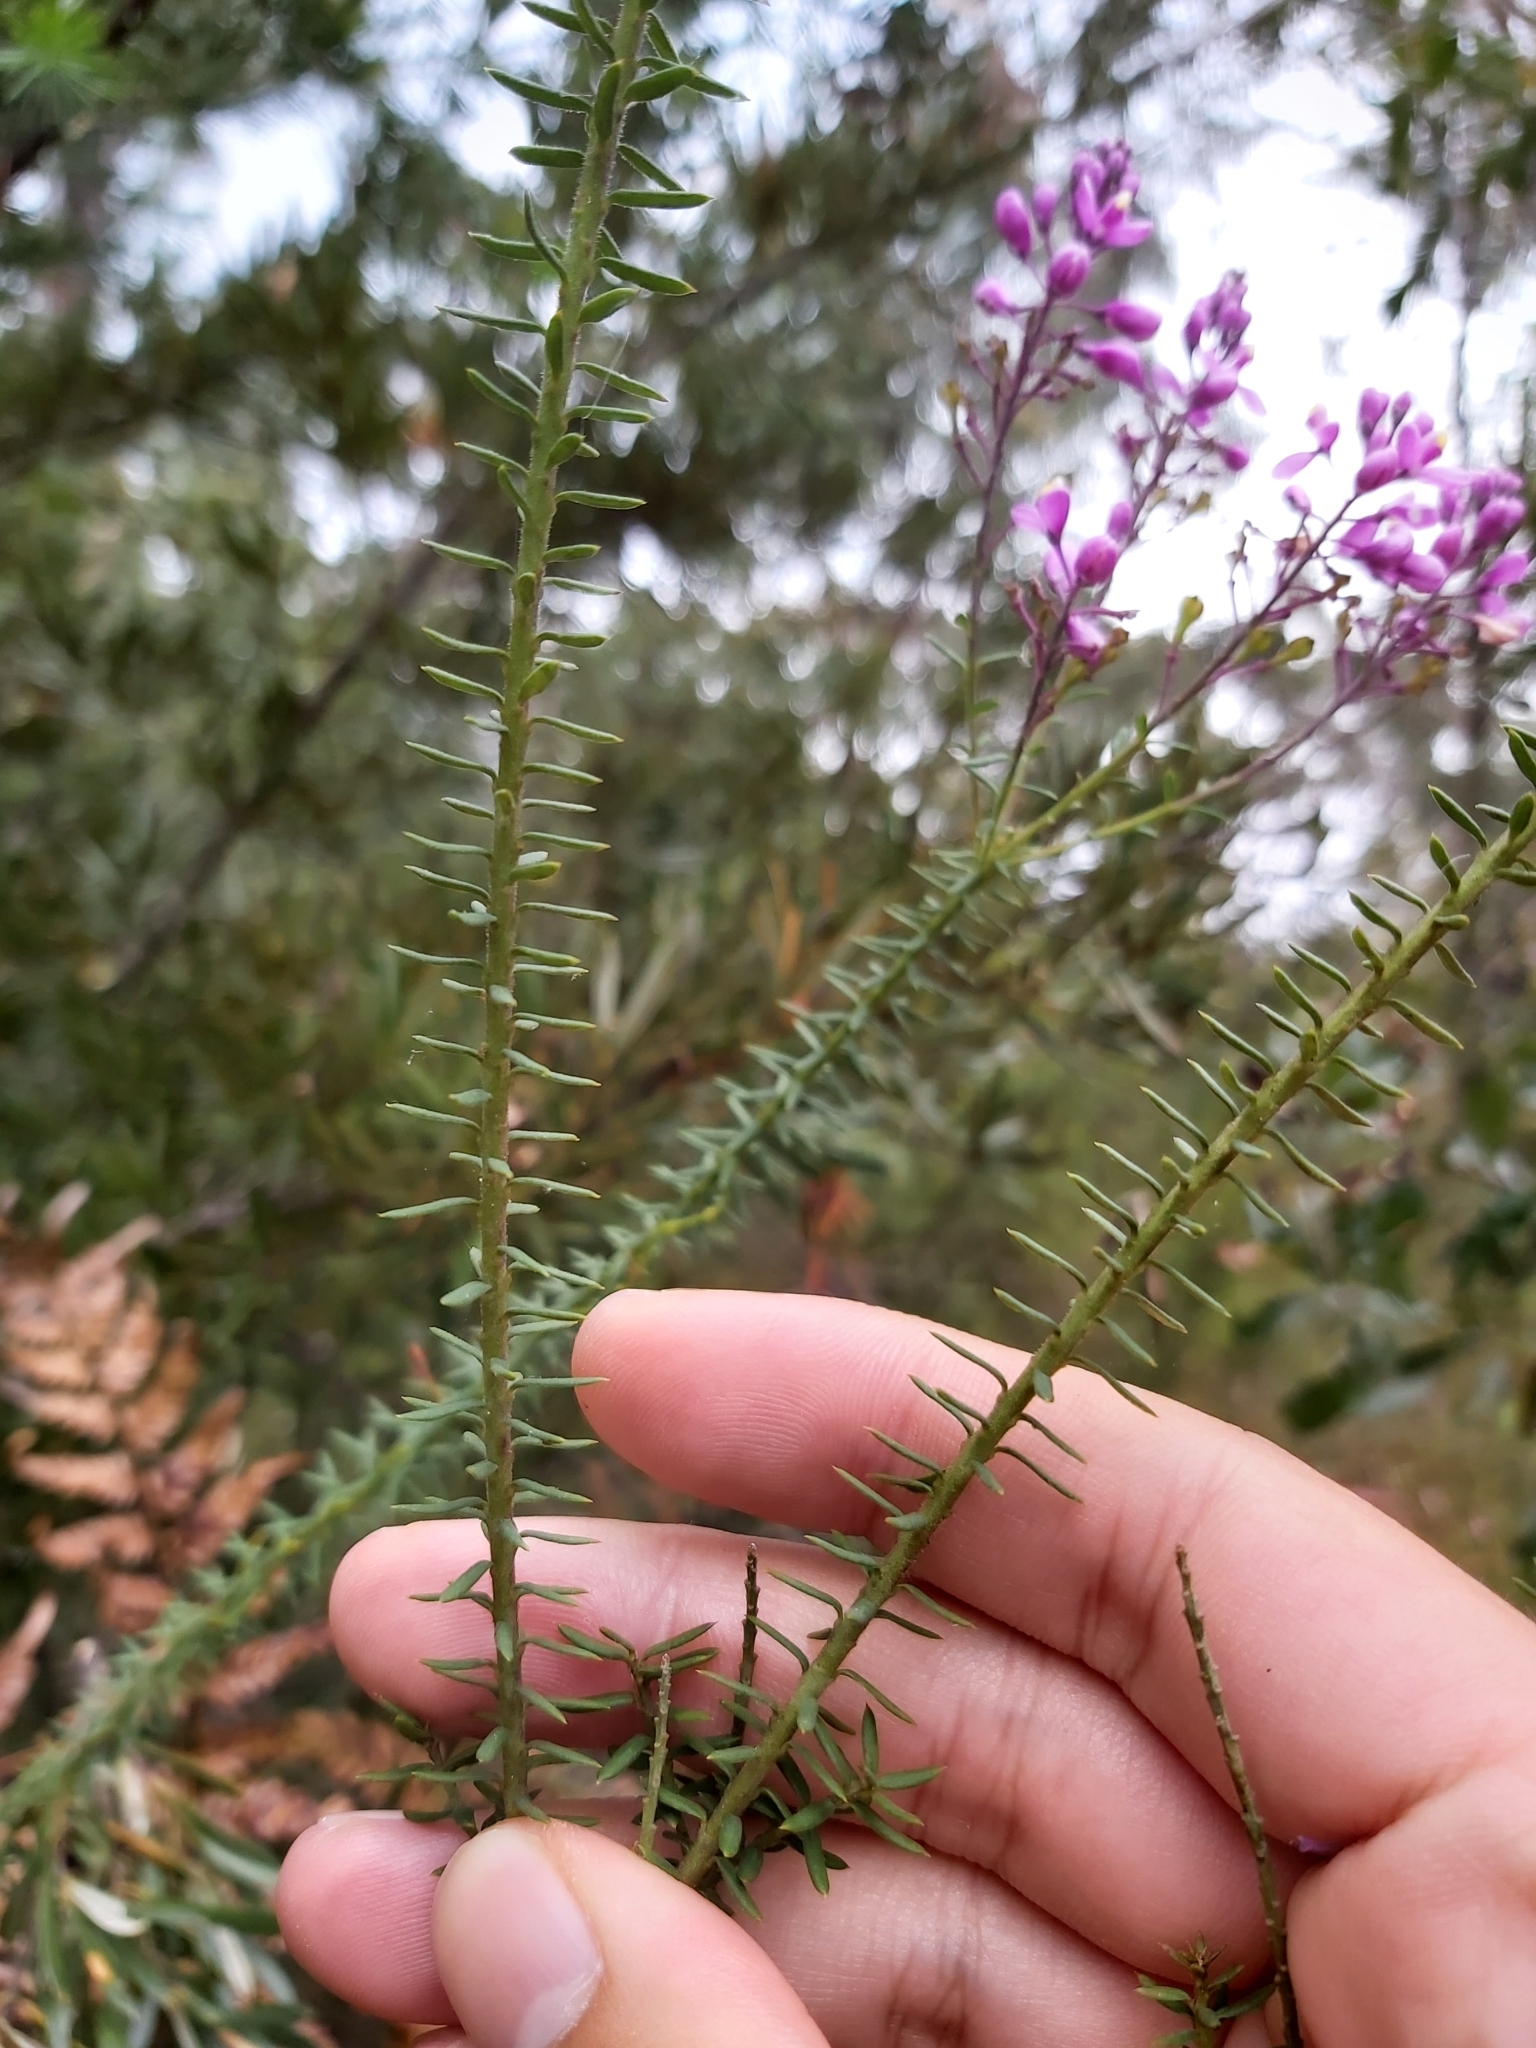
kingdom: Plantae
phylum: Tracheophyta
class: Magnoliopsida
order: Fabales
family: Polygalaceae
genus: Comesperma
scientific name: Comesperma ericinum
